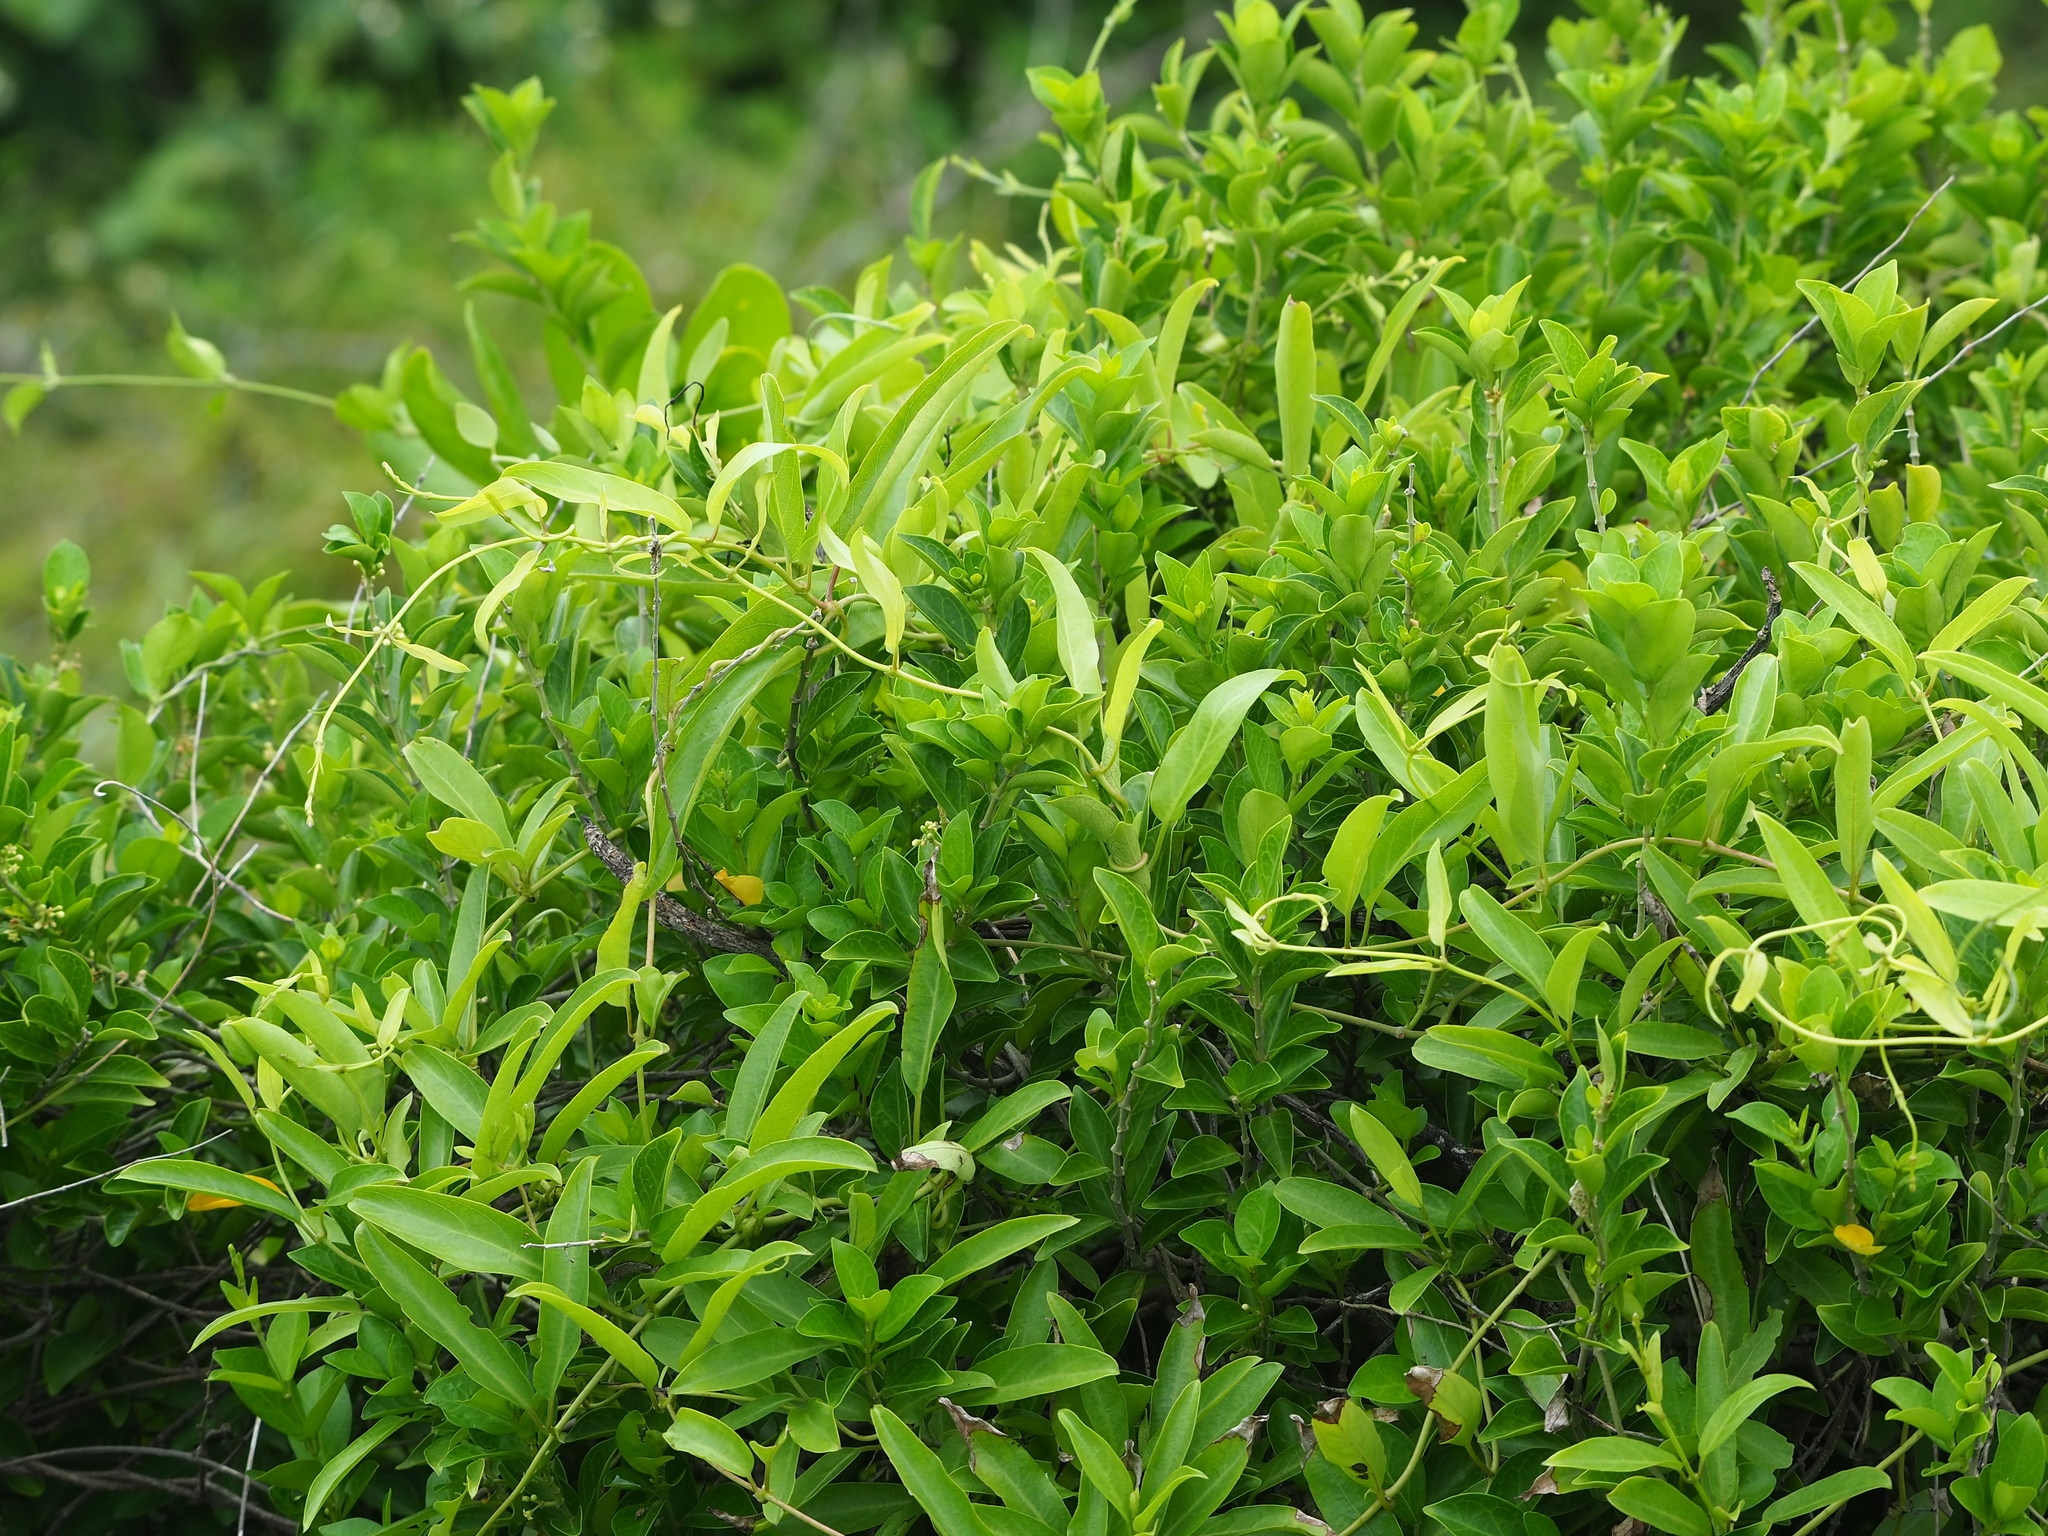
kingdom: Plantae
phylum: Tracheophyta
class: Magnoliopsida
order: Gentianales
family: Rubiaceae
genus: Paederia
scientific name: Paederia foetida
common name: Stinkvine
